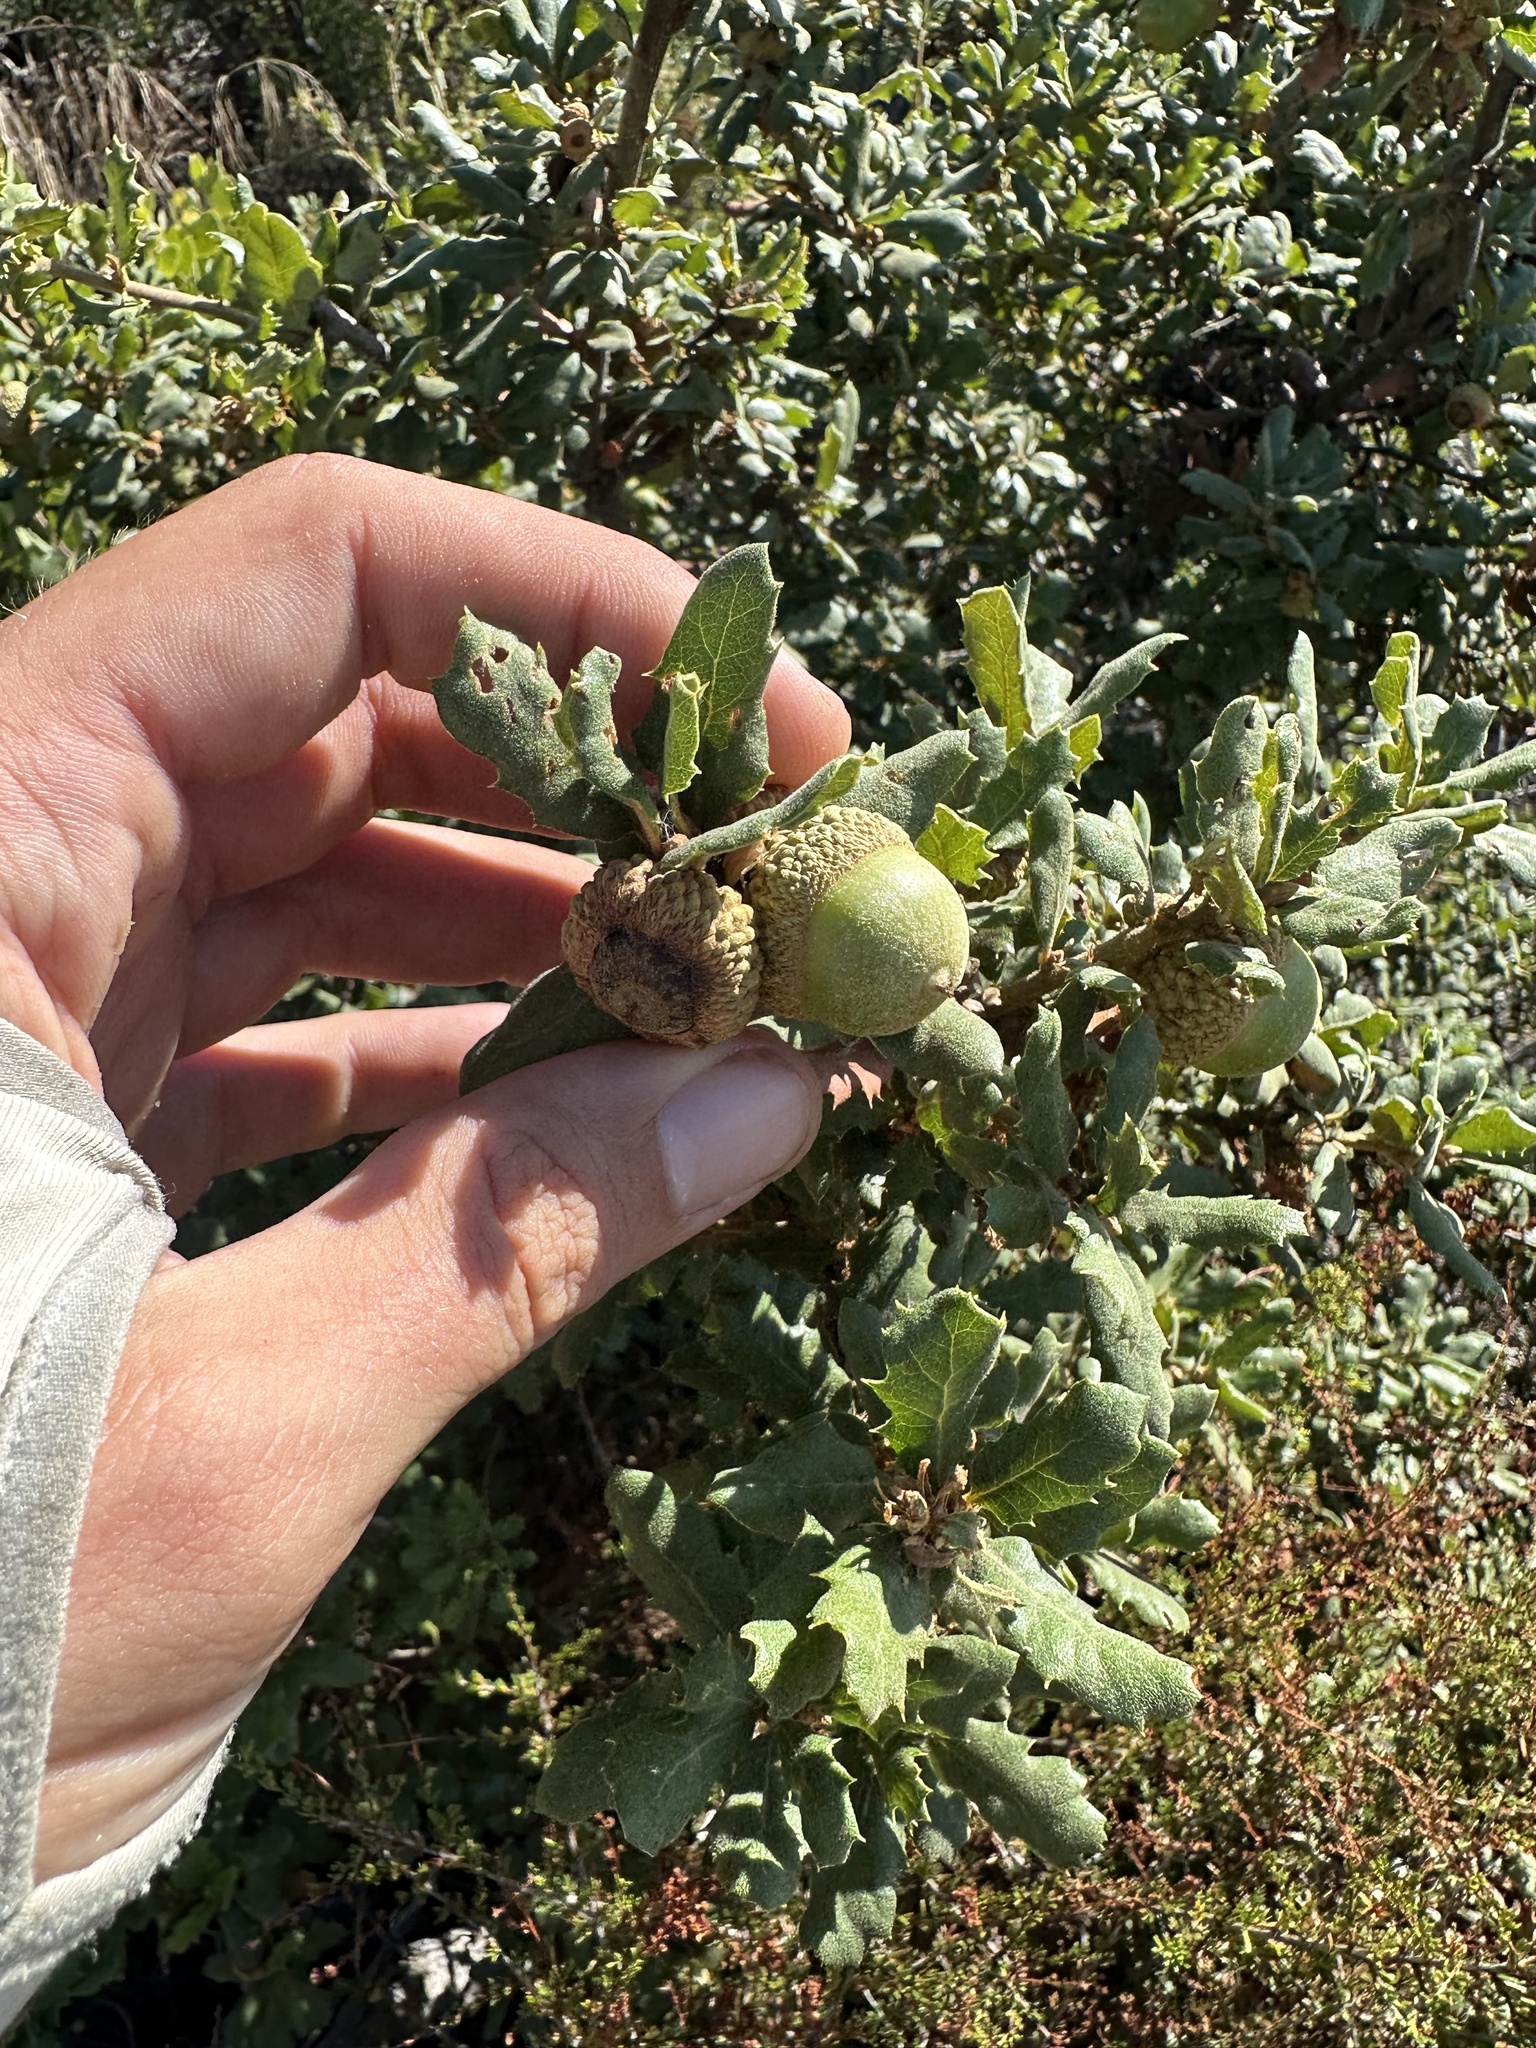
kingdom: Plantae
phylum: Tracheophyta
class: Magnoliopsida
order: Fagales
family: Fagaceae
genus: Quercus
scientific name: Quercus durata
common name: Leather oak
